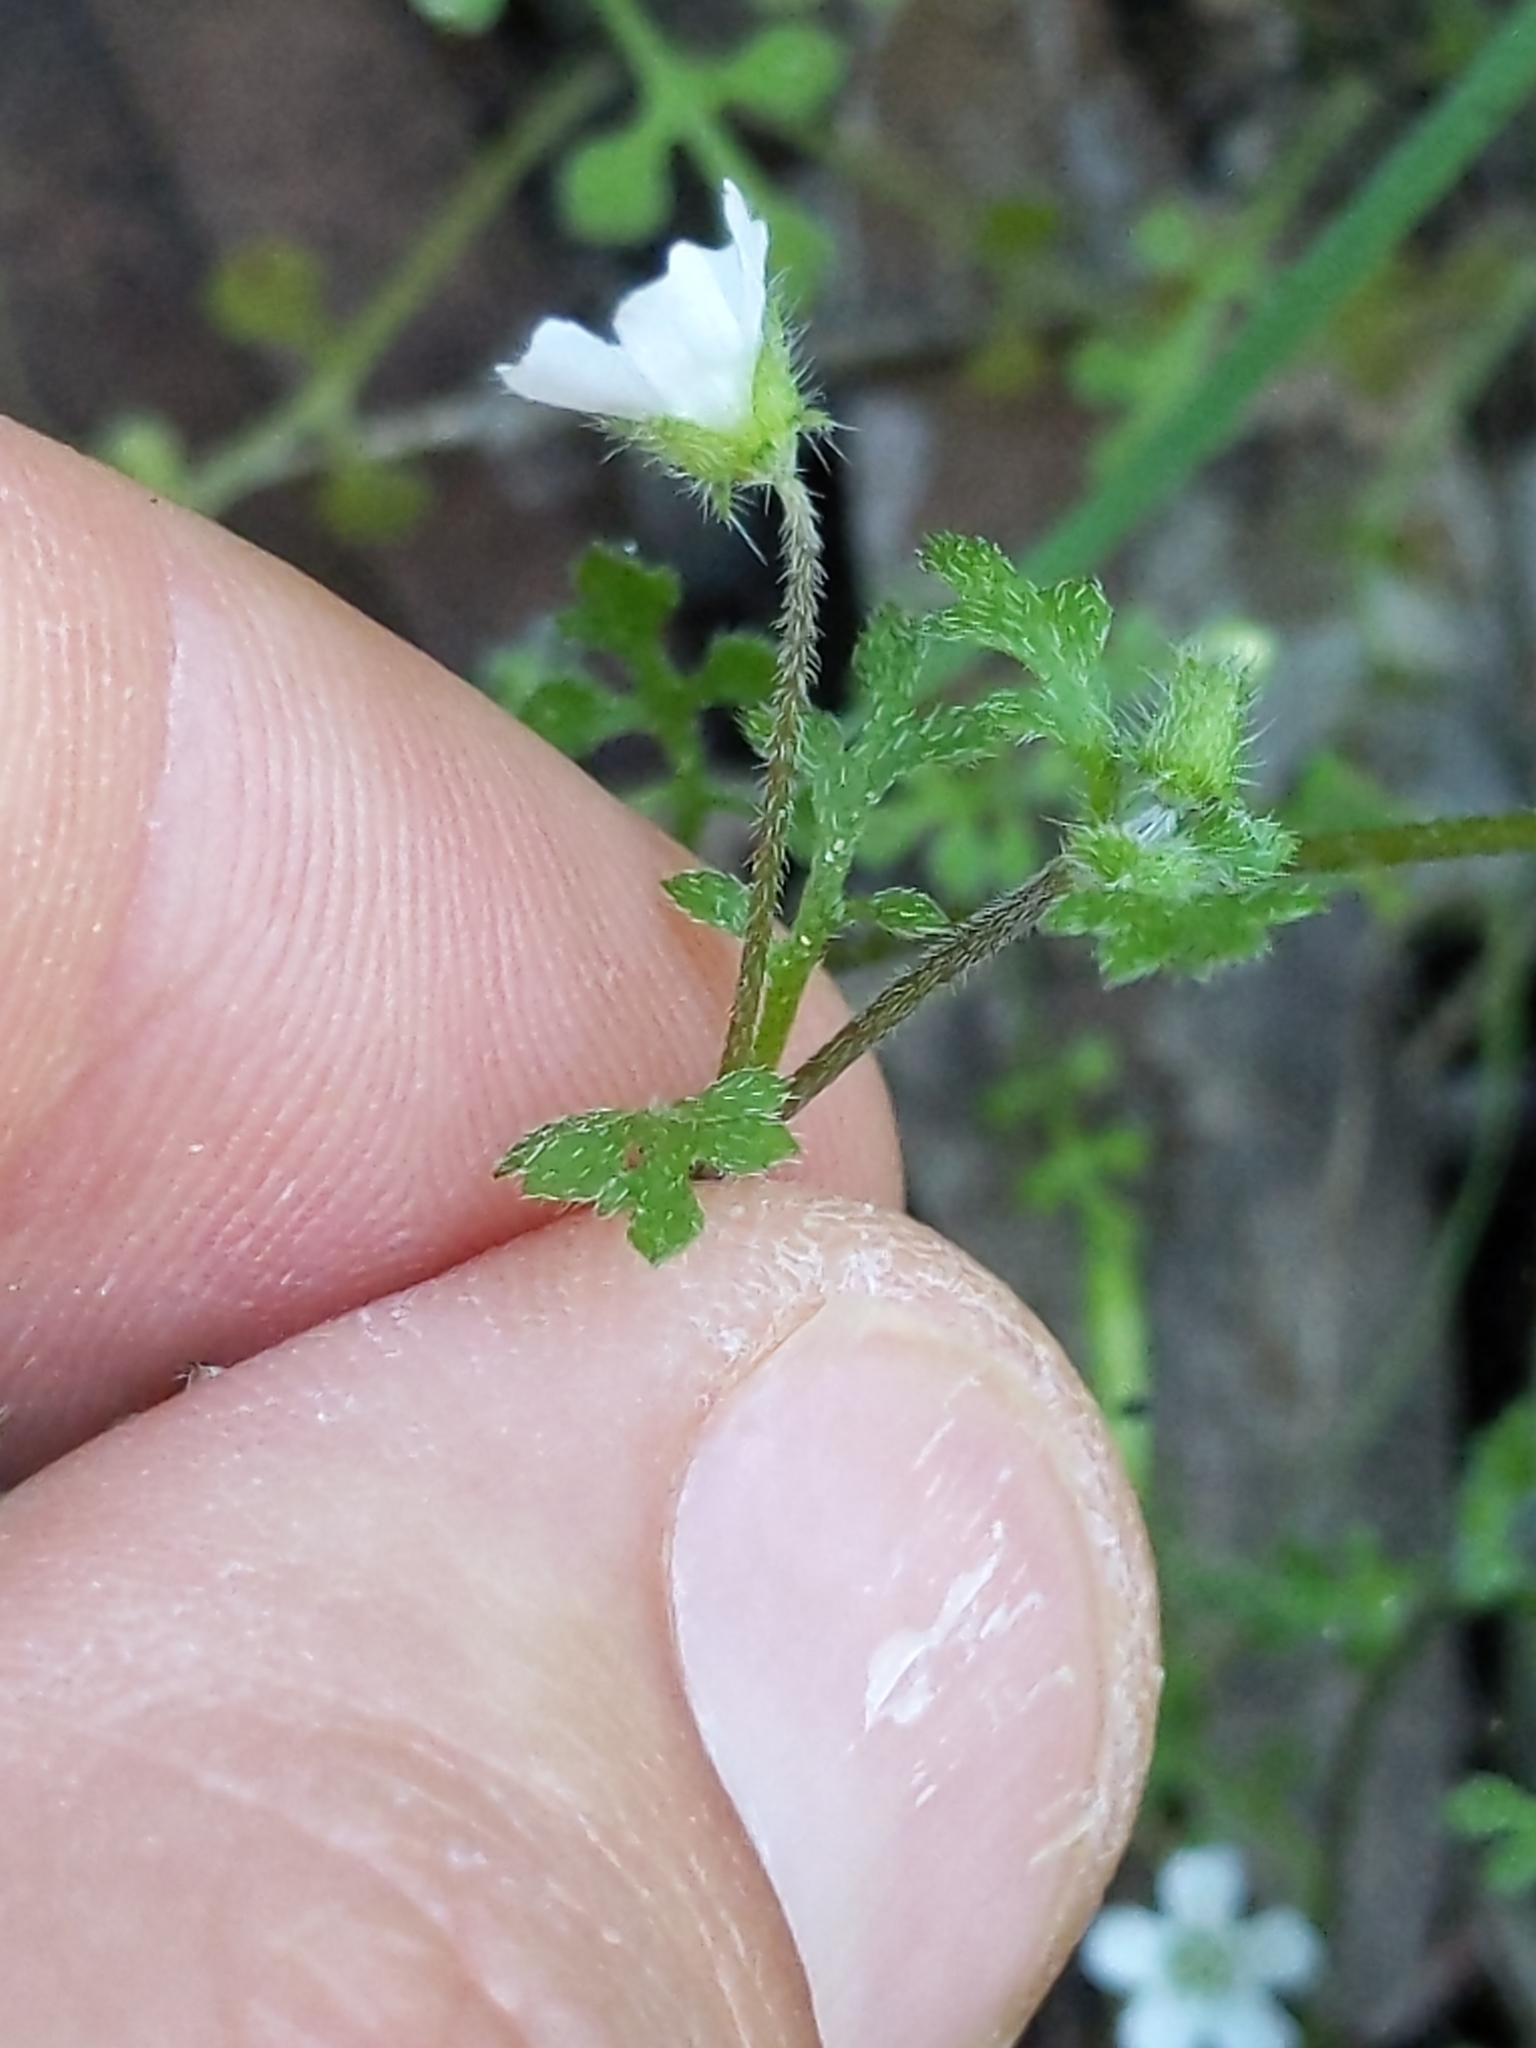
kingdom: Plantae
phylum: Tracheophyta
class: Magnoliopsida
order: Boraginales
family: Hydrophyllaceae
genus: Nemophila
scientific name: Nemophila heterophylla
